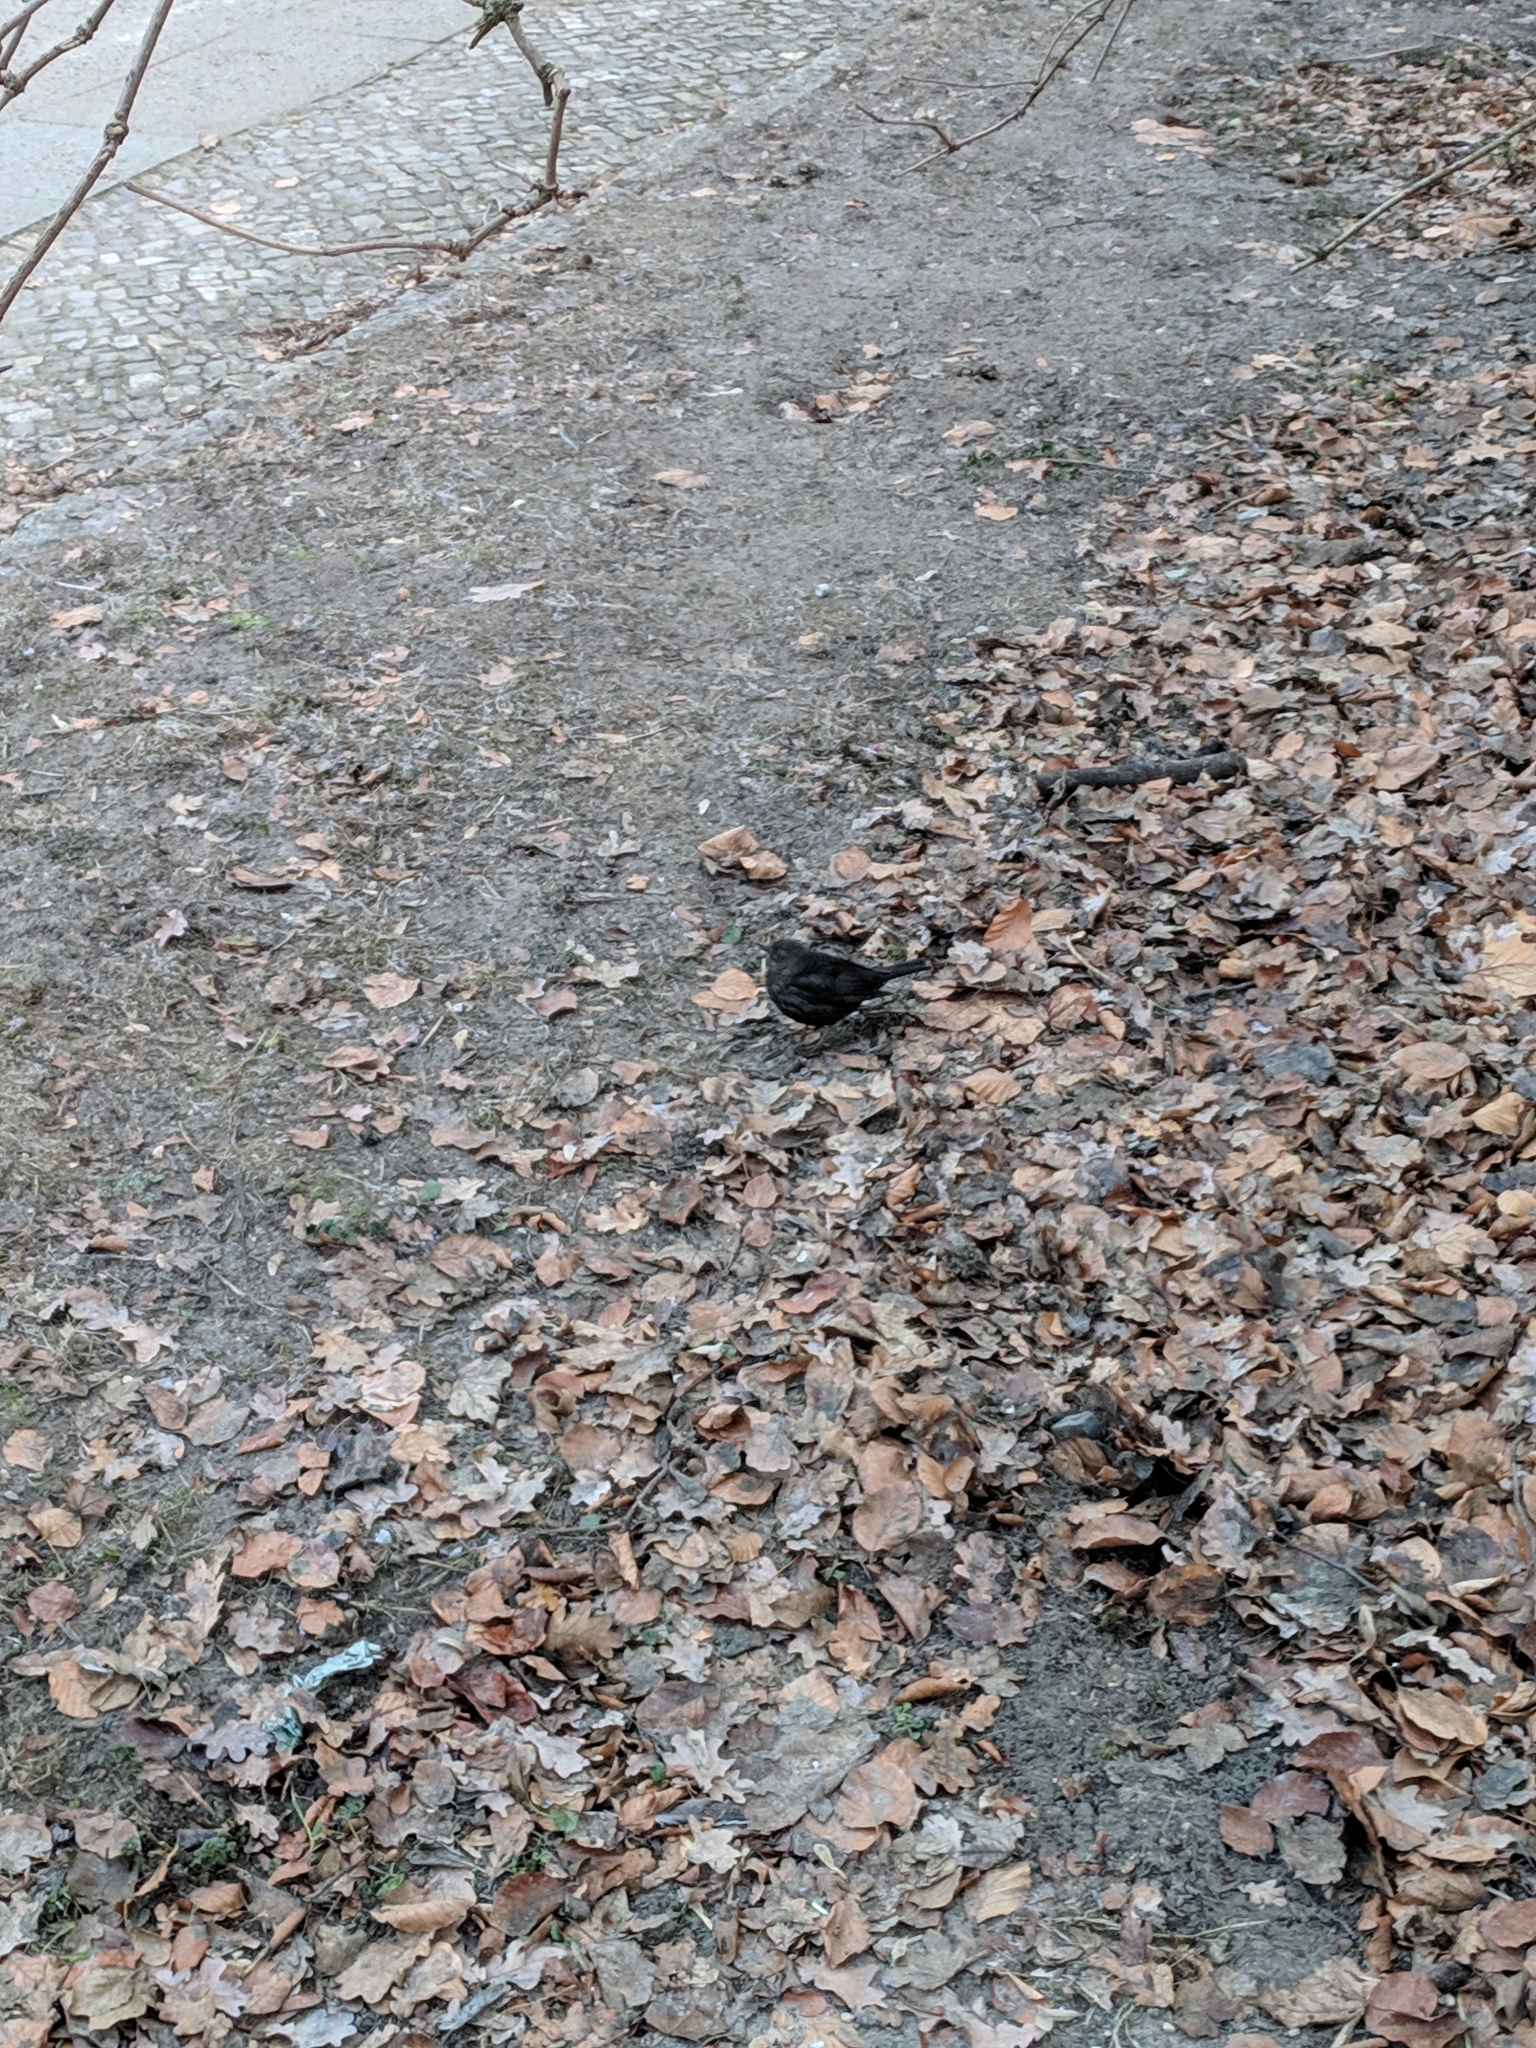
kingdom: Animalia
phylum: Chordata
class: Aves
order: Passeriformes
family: Turdidae
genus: Turdus
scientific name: Turdus merula
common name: Common blackbird
